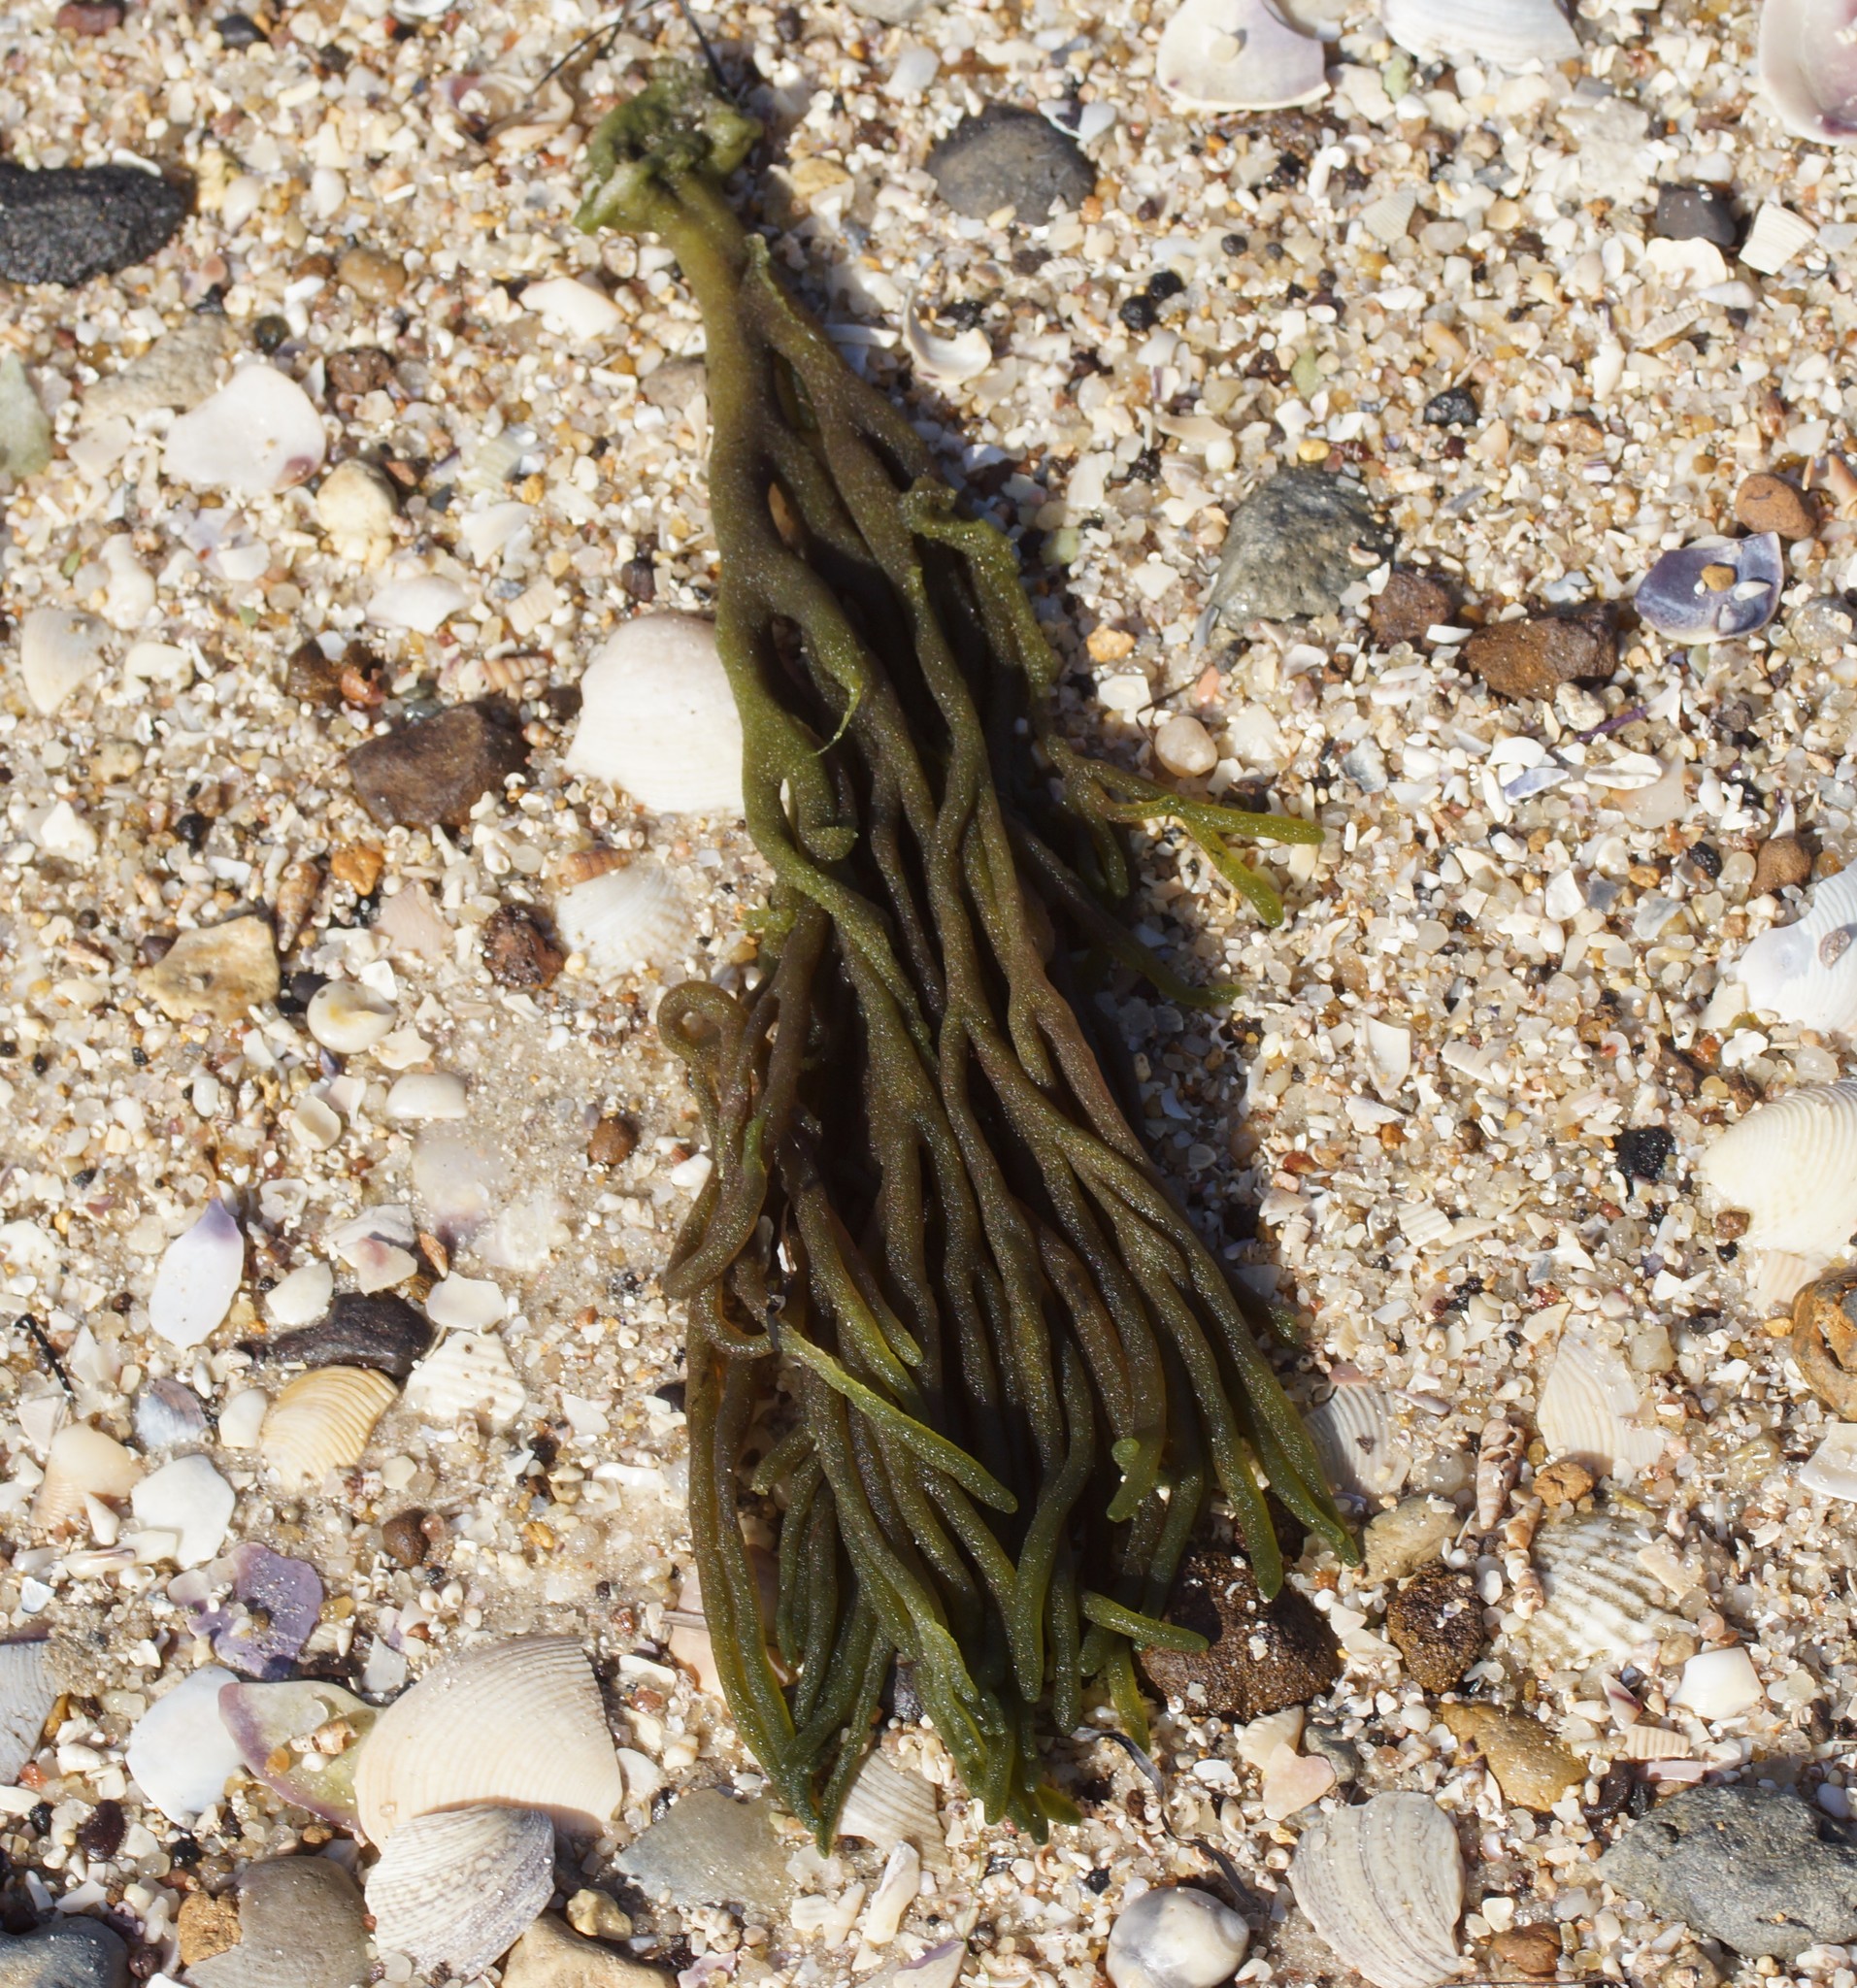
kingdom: Plantae
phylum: Chlorophyta
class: Ulvophyceae
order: Bryopsidales
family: Codiaceae
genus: Codium
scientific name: Codium fragile
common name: Dead man's fingers
